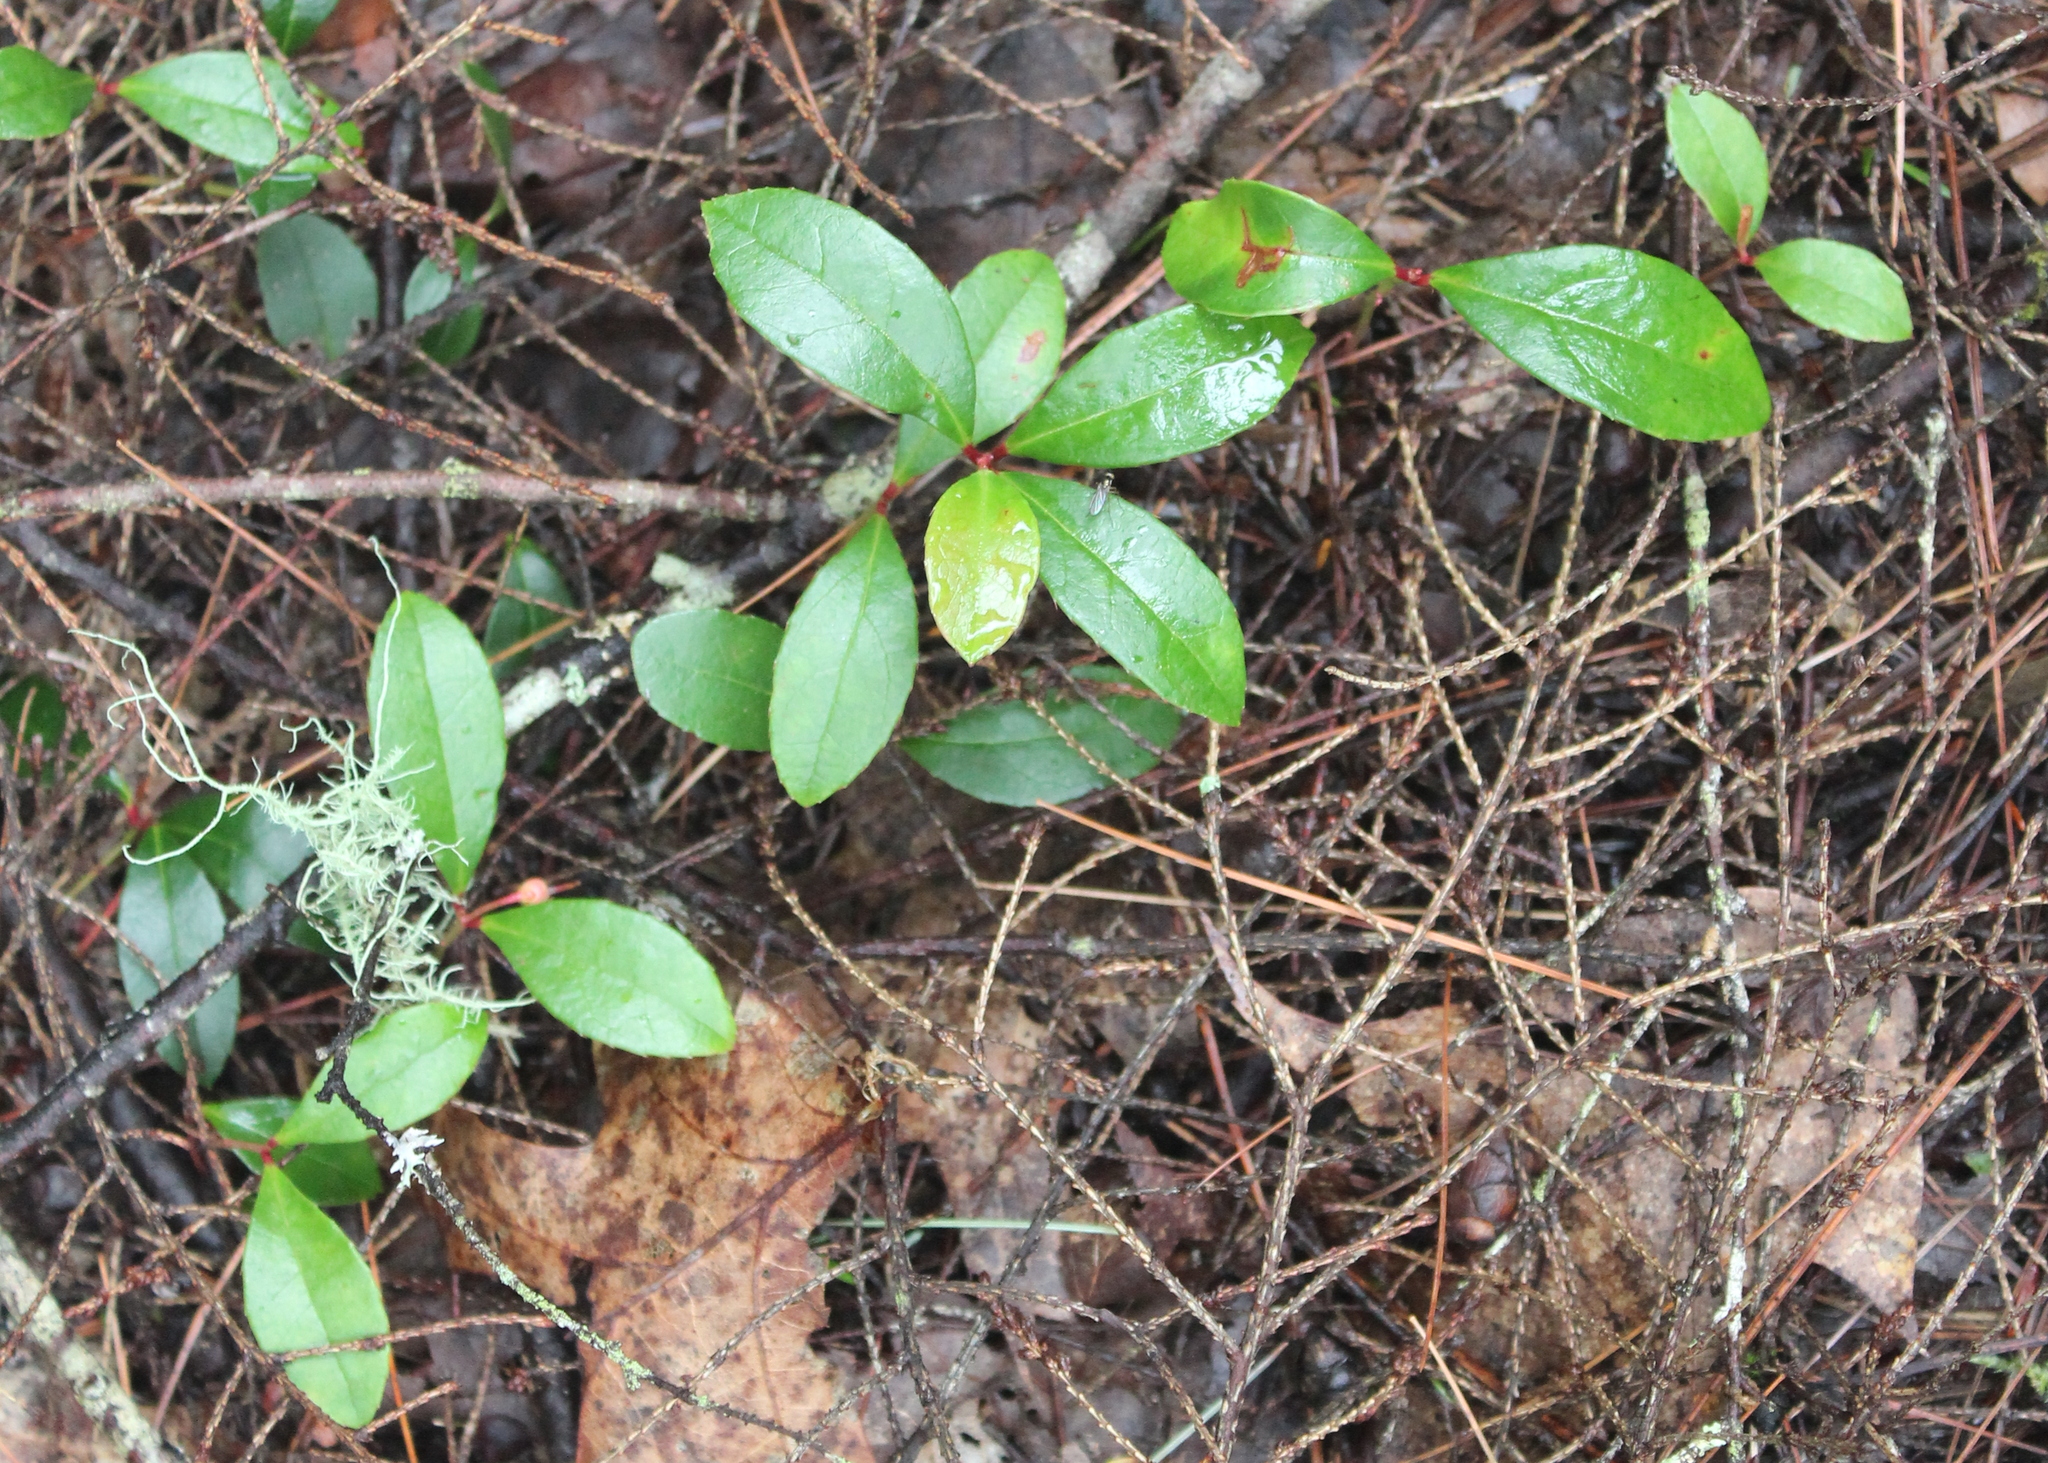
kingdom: Plantae
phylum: Tracheophyta
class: Magnoliopsida
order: Ericales
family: Ericaceae
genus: Gaultheria
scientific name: Gaultheria procumbens
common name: Checkerberry
